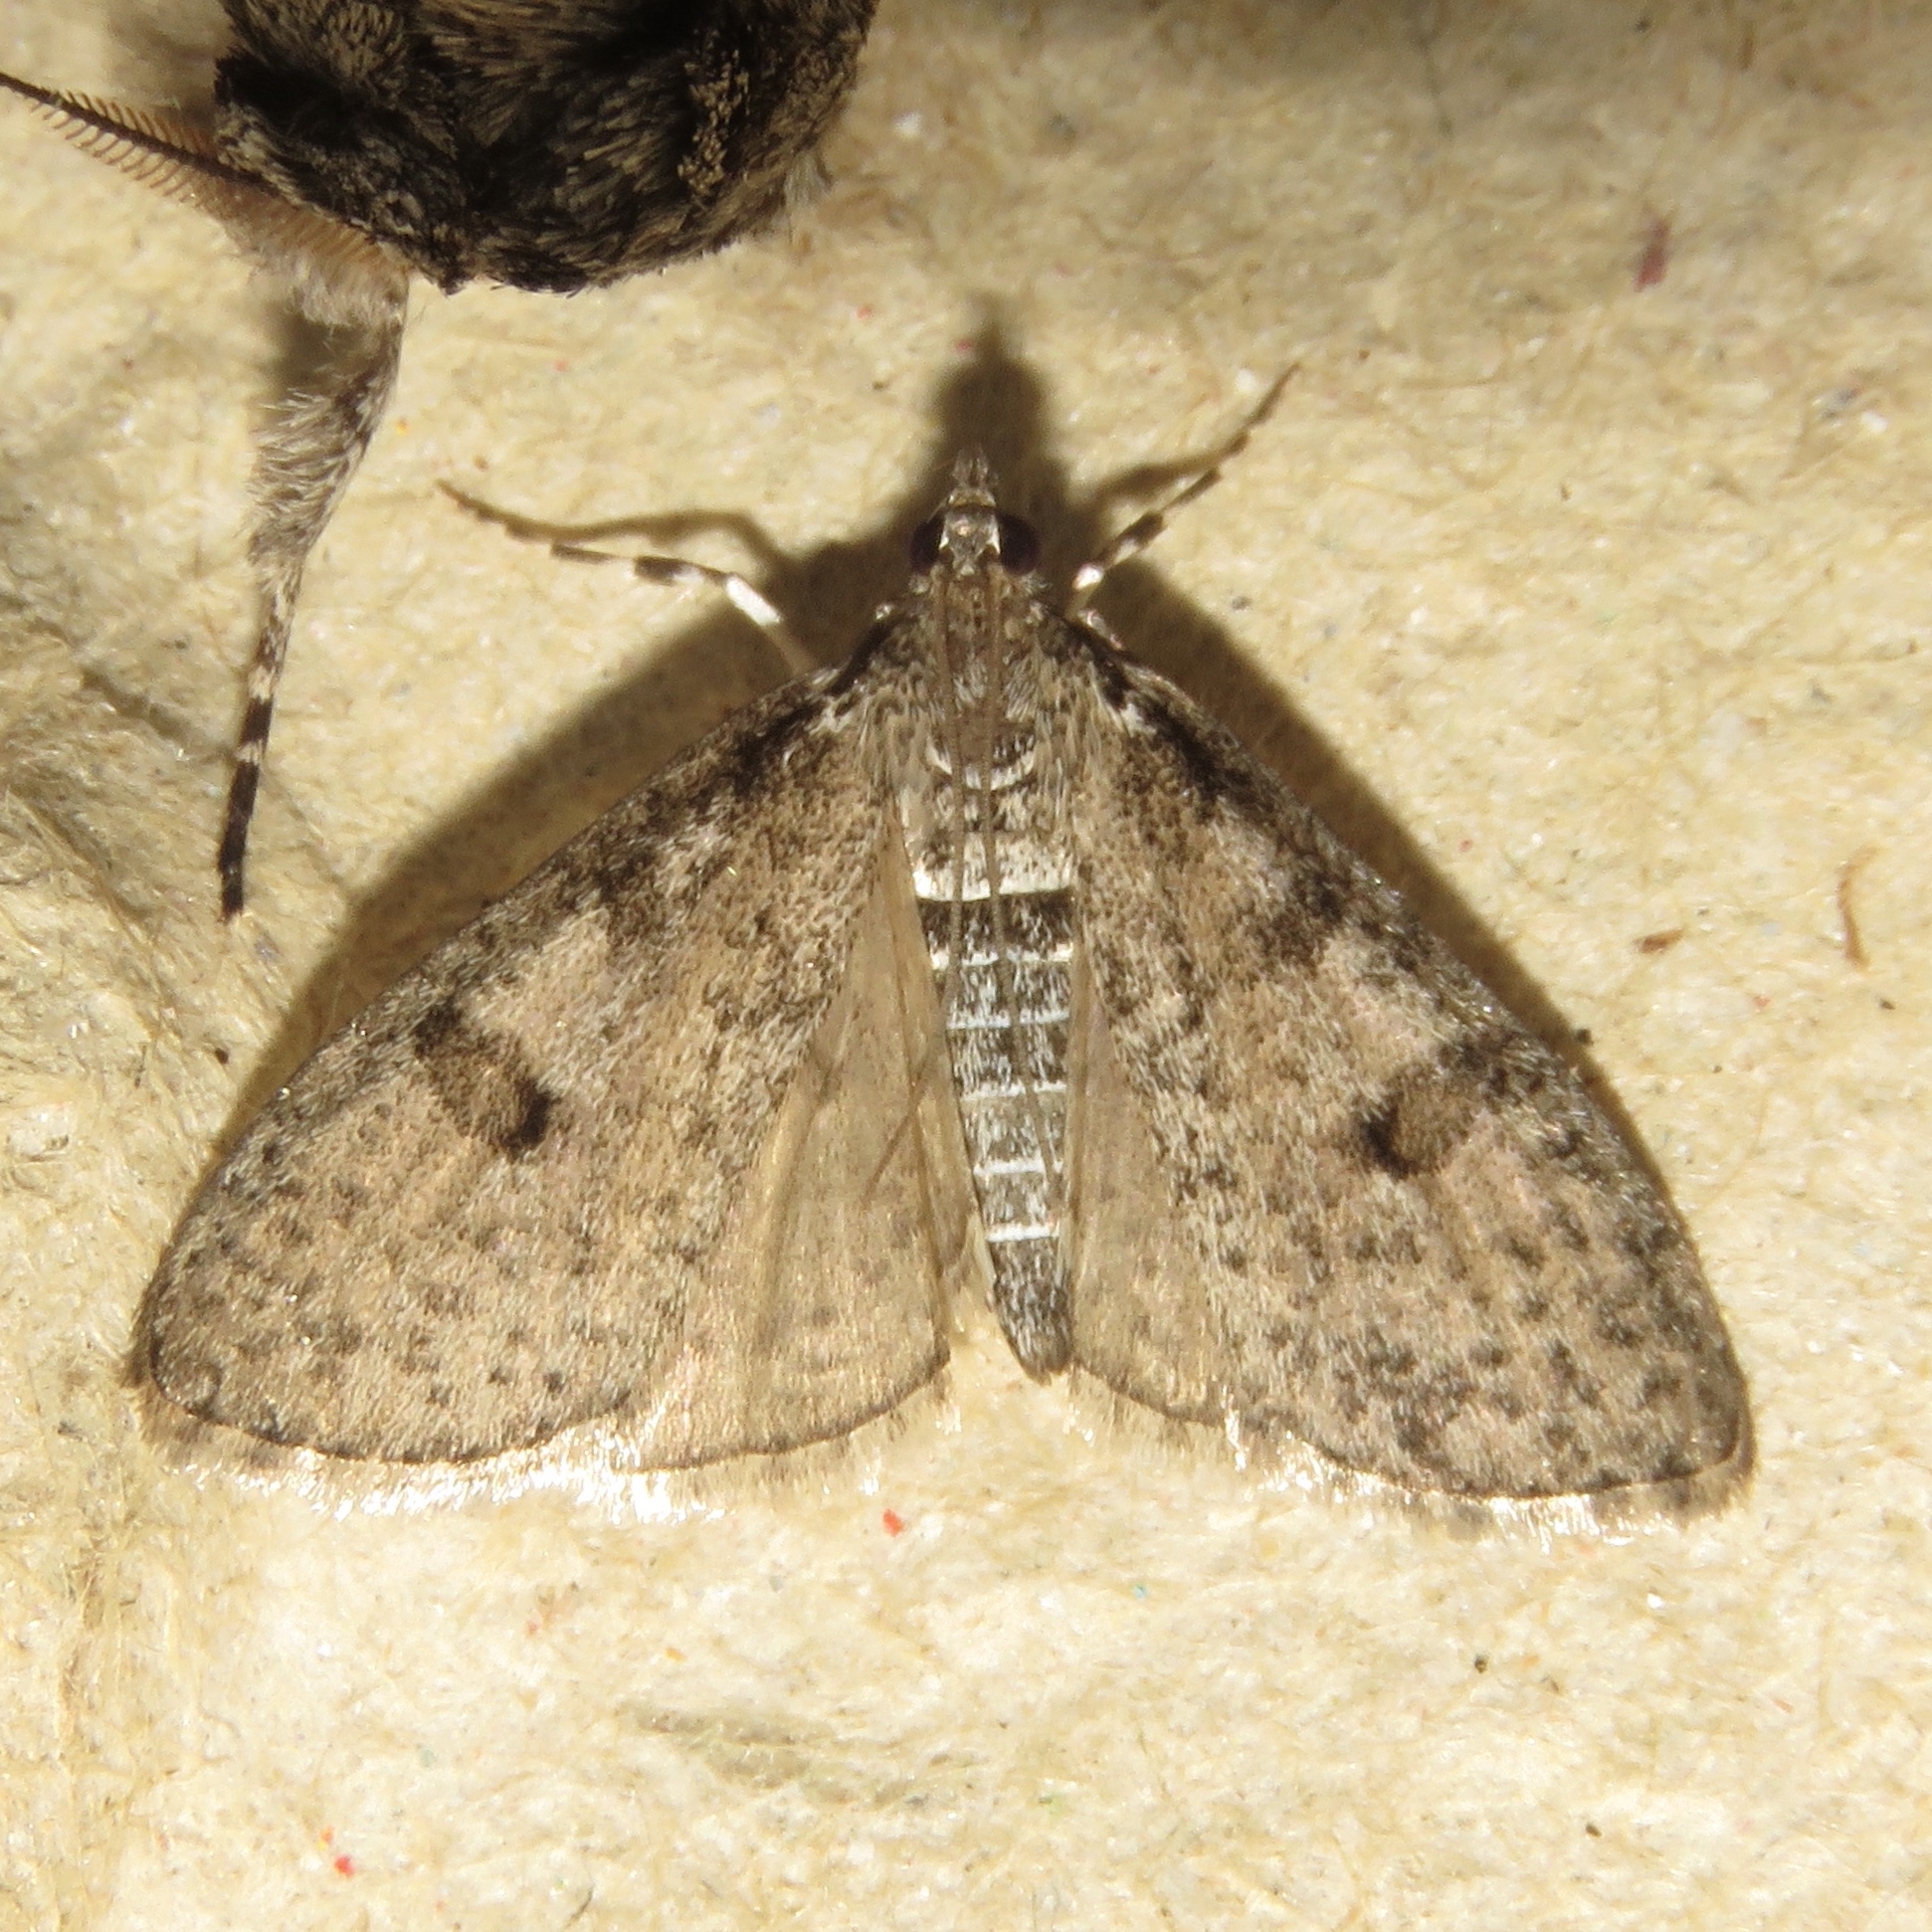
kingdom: Animalia
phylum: Arthropoda
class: Insecta
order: Lepidoptera
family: Crambidae
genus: Palpita
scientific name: Palpita aenescentalis
